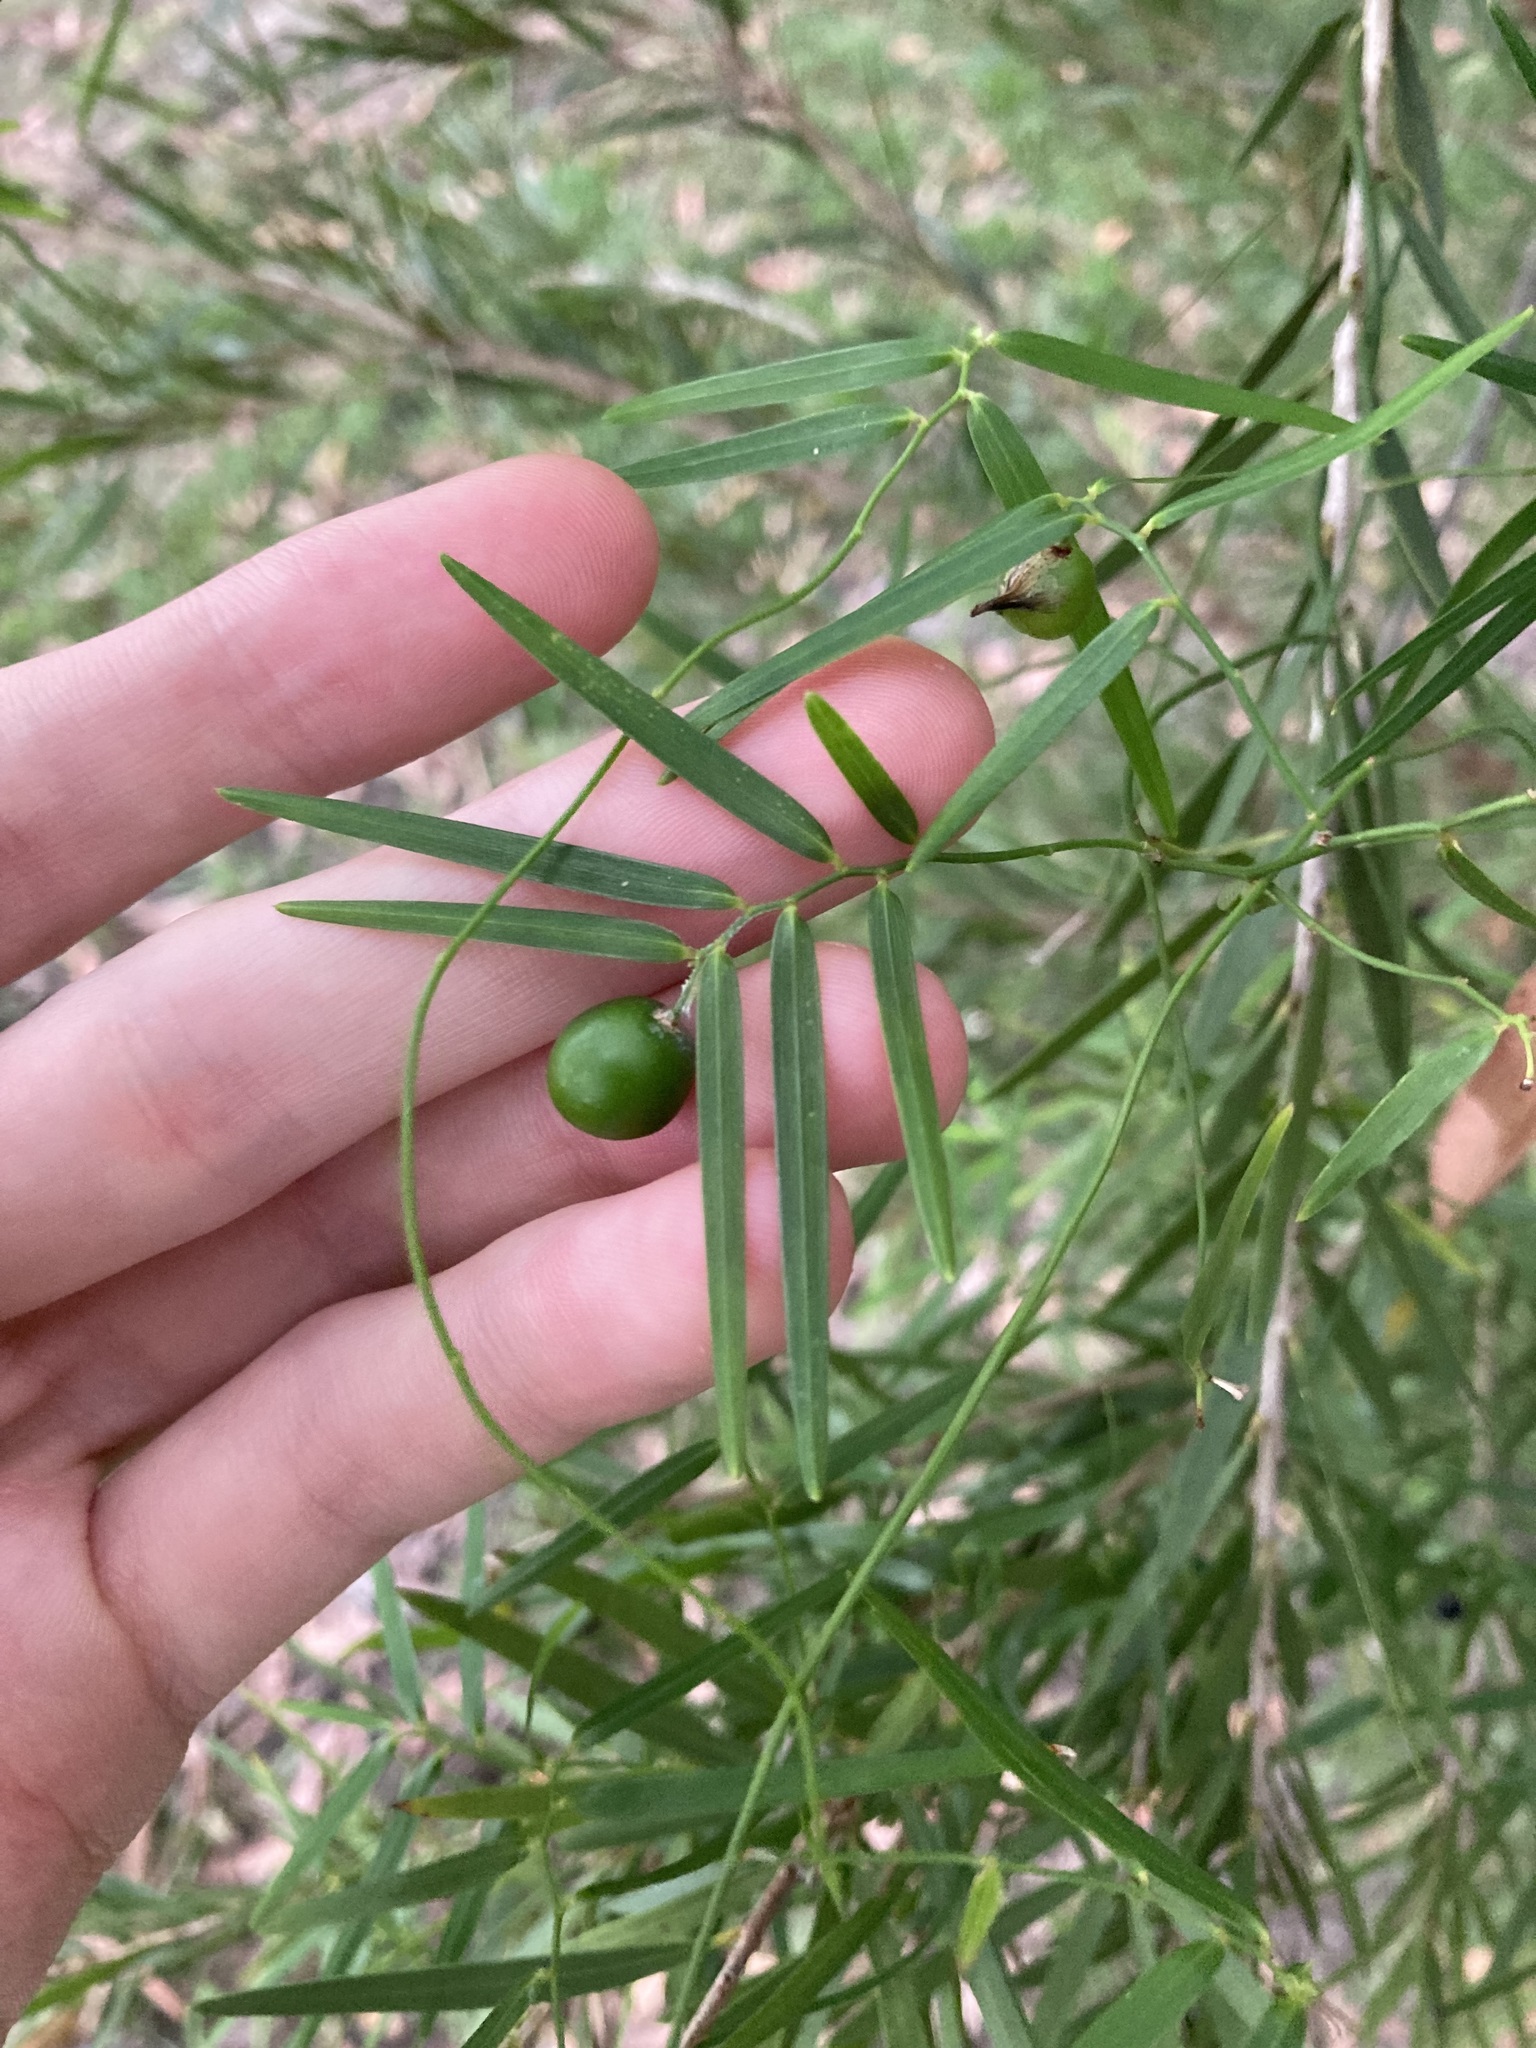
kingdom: Plantae
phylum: Tracheophyta
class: Liliopsida
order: Asparagales
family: Asphodelaceae
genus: Geitonoplesium
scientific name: Geitonoplesium cymosum
